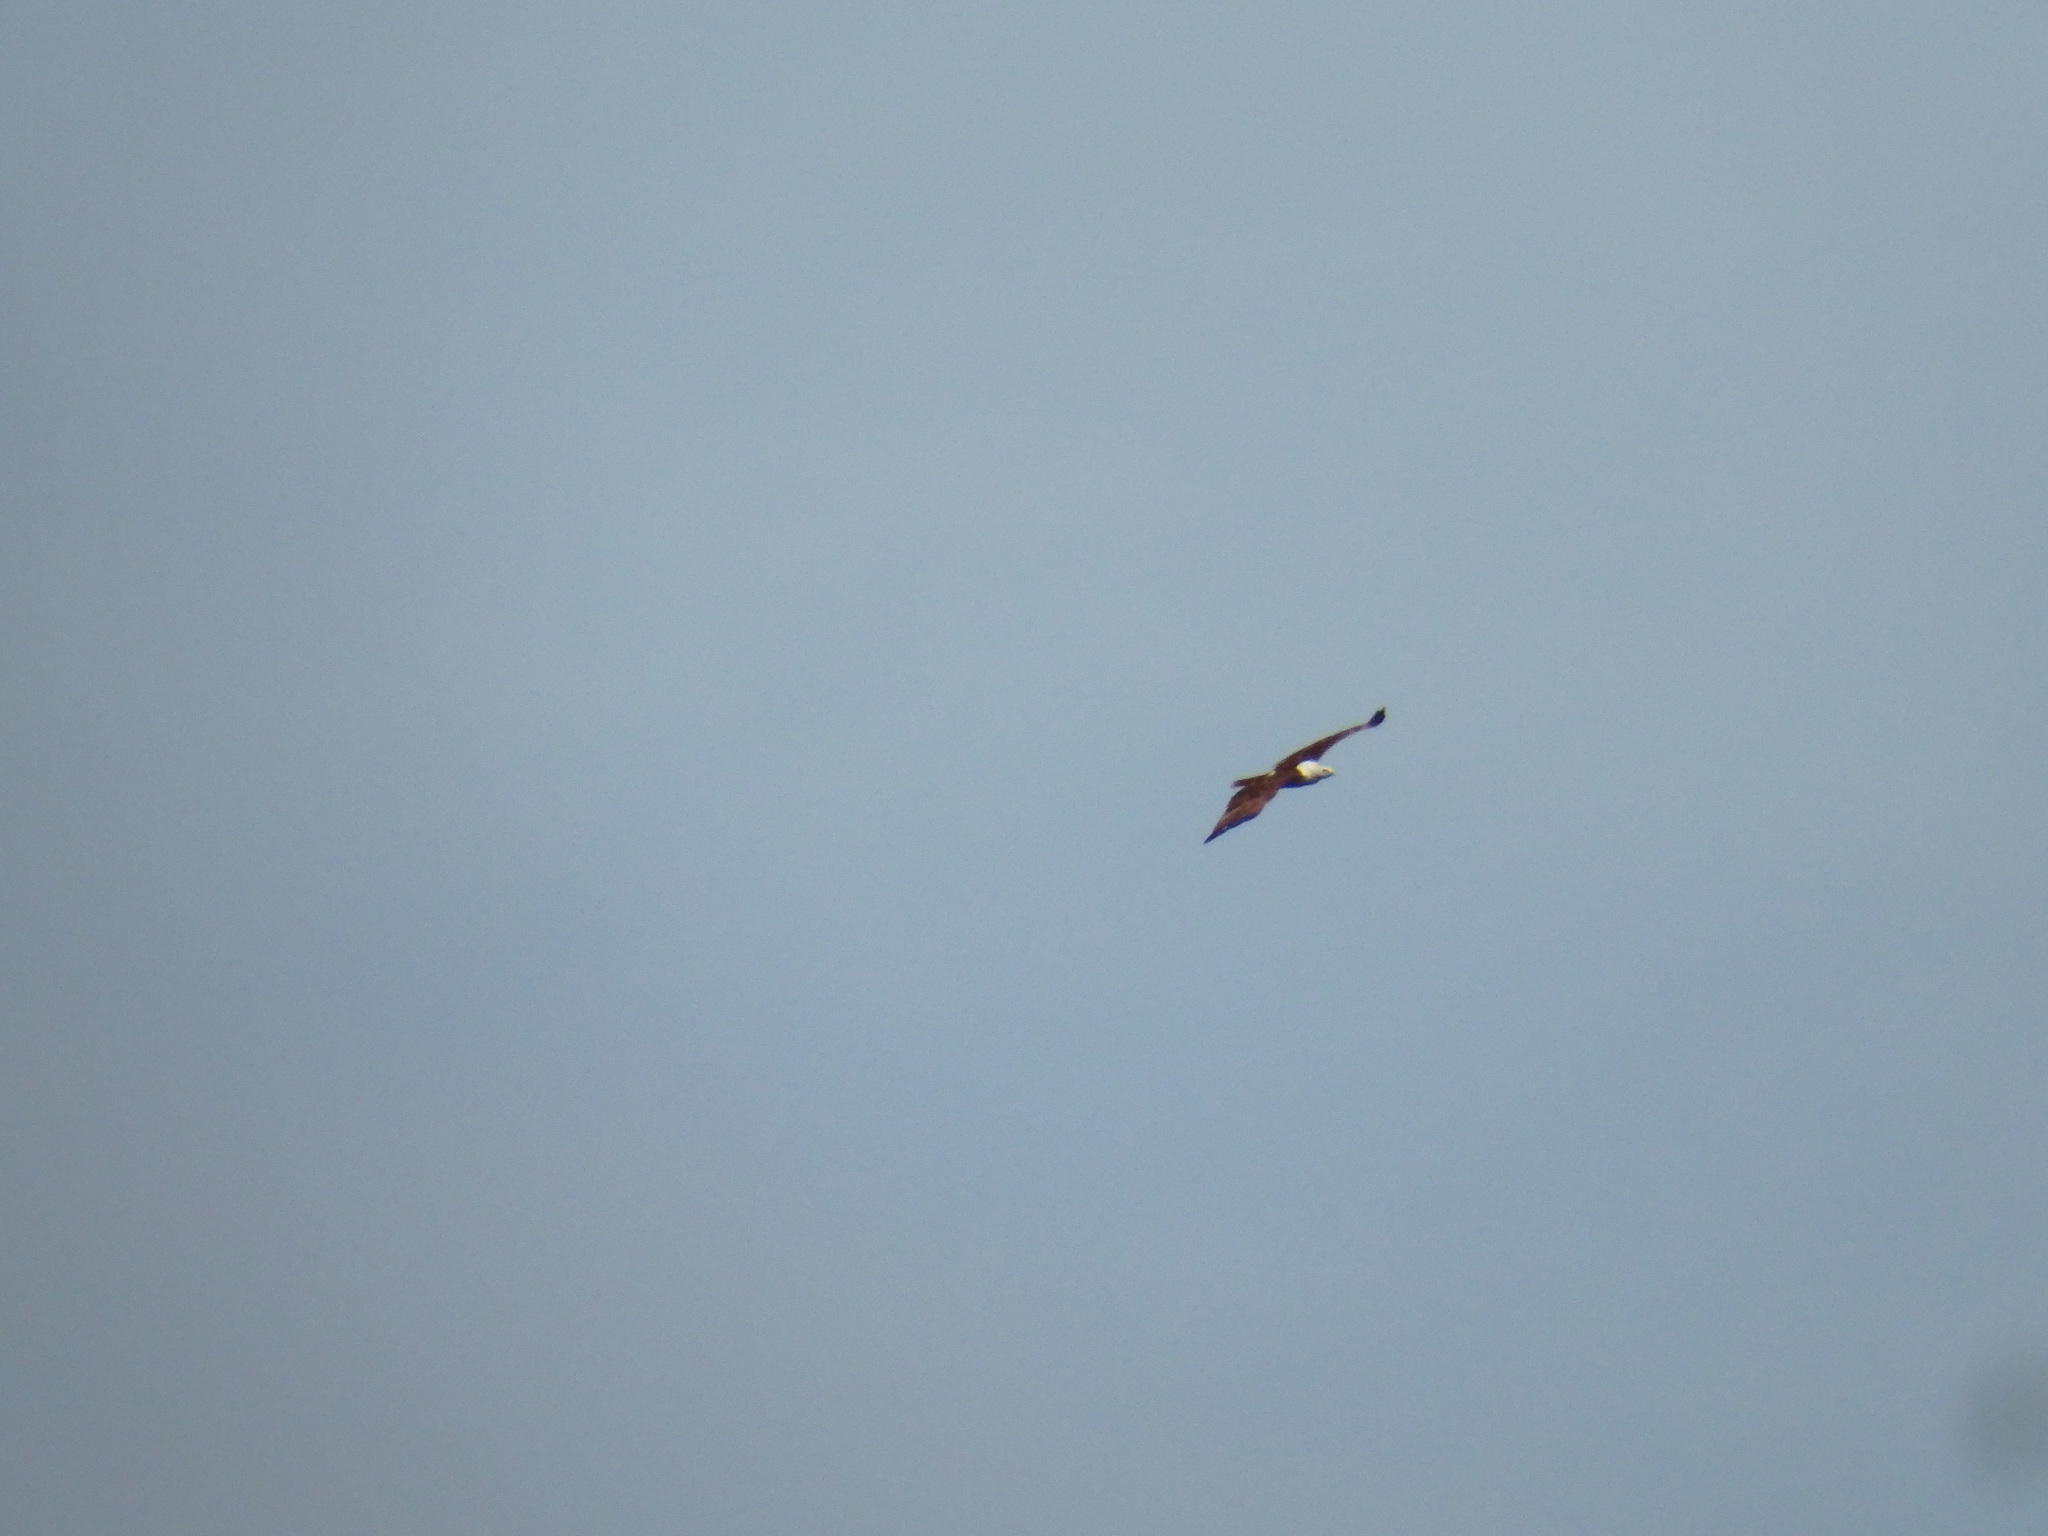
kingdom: Animalia
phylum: Chordata
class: Aves
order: Accipitriformes
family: Accipitridae
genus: Haliastur
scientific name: Haliastur indus
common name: Brahminy kite
